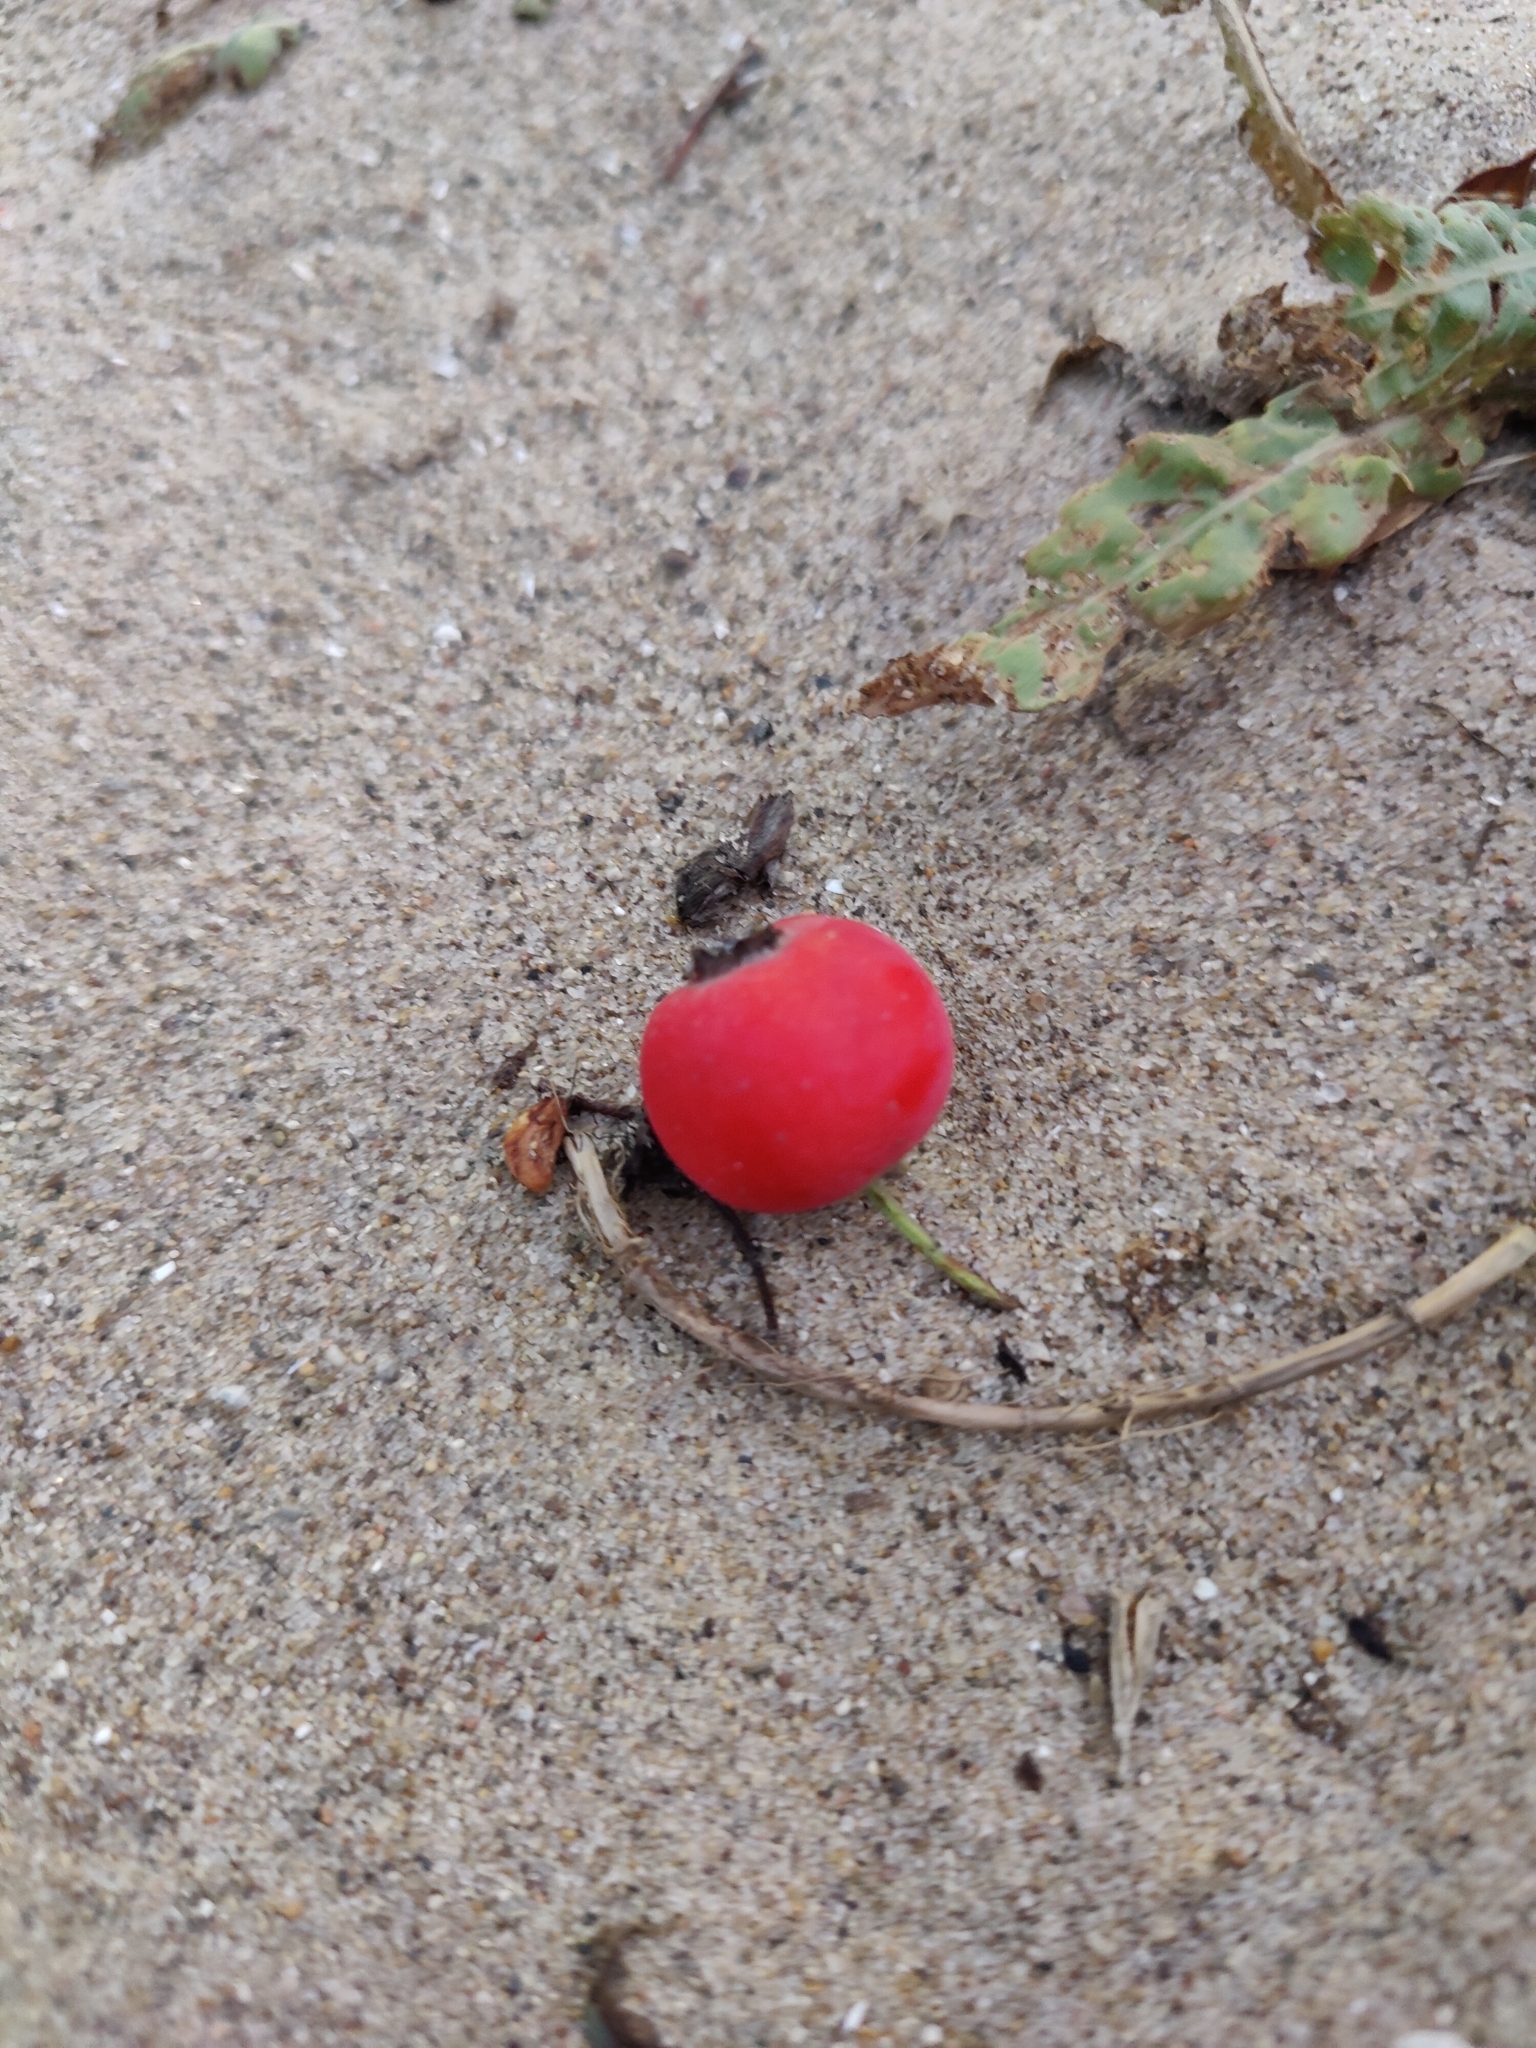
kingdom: Plantae
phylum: Tracheophyta
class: Magnoliopsida
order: Rosales
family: Rosaceae
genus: Crataegus
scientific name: Crataegus crus-galli
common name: Cockspurthorn
